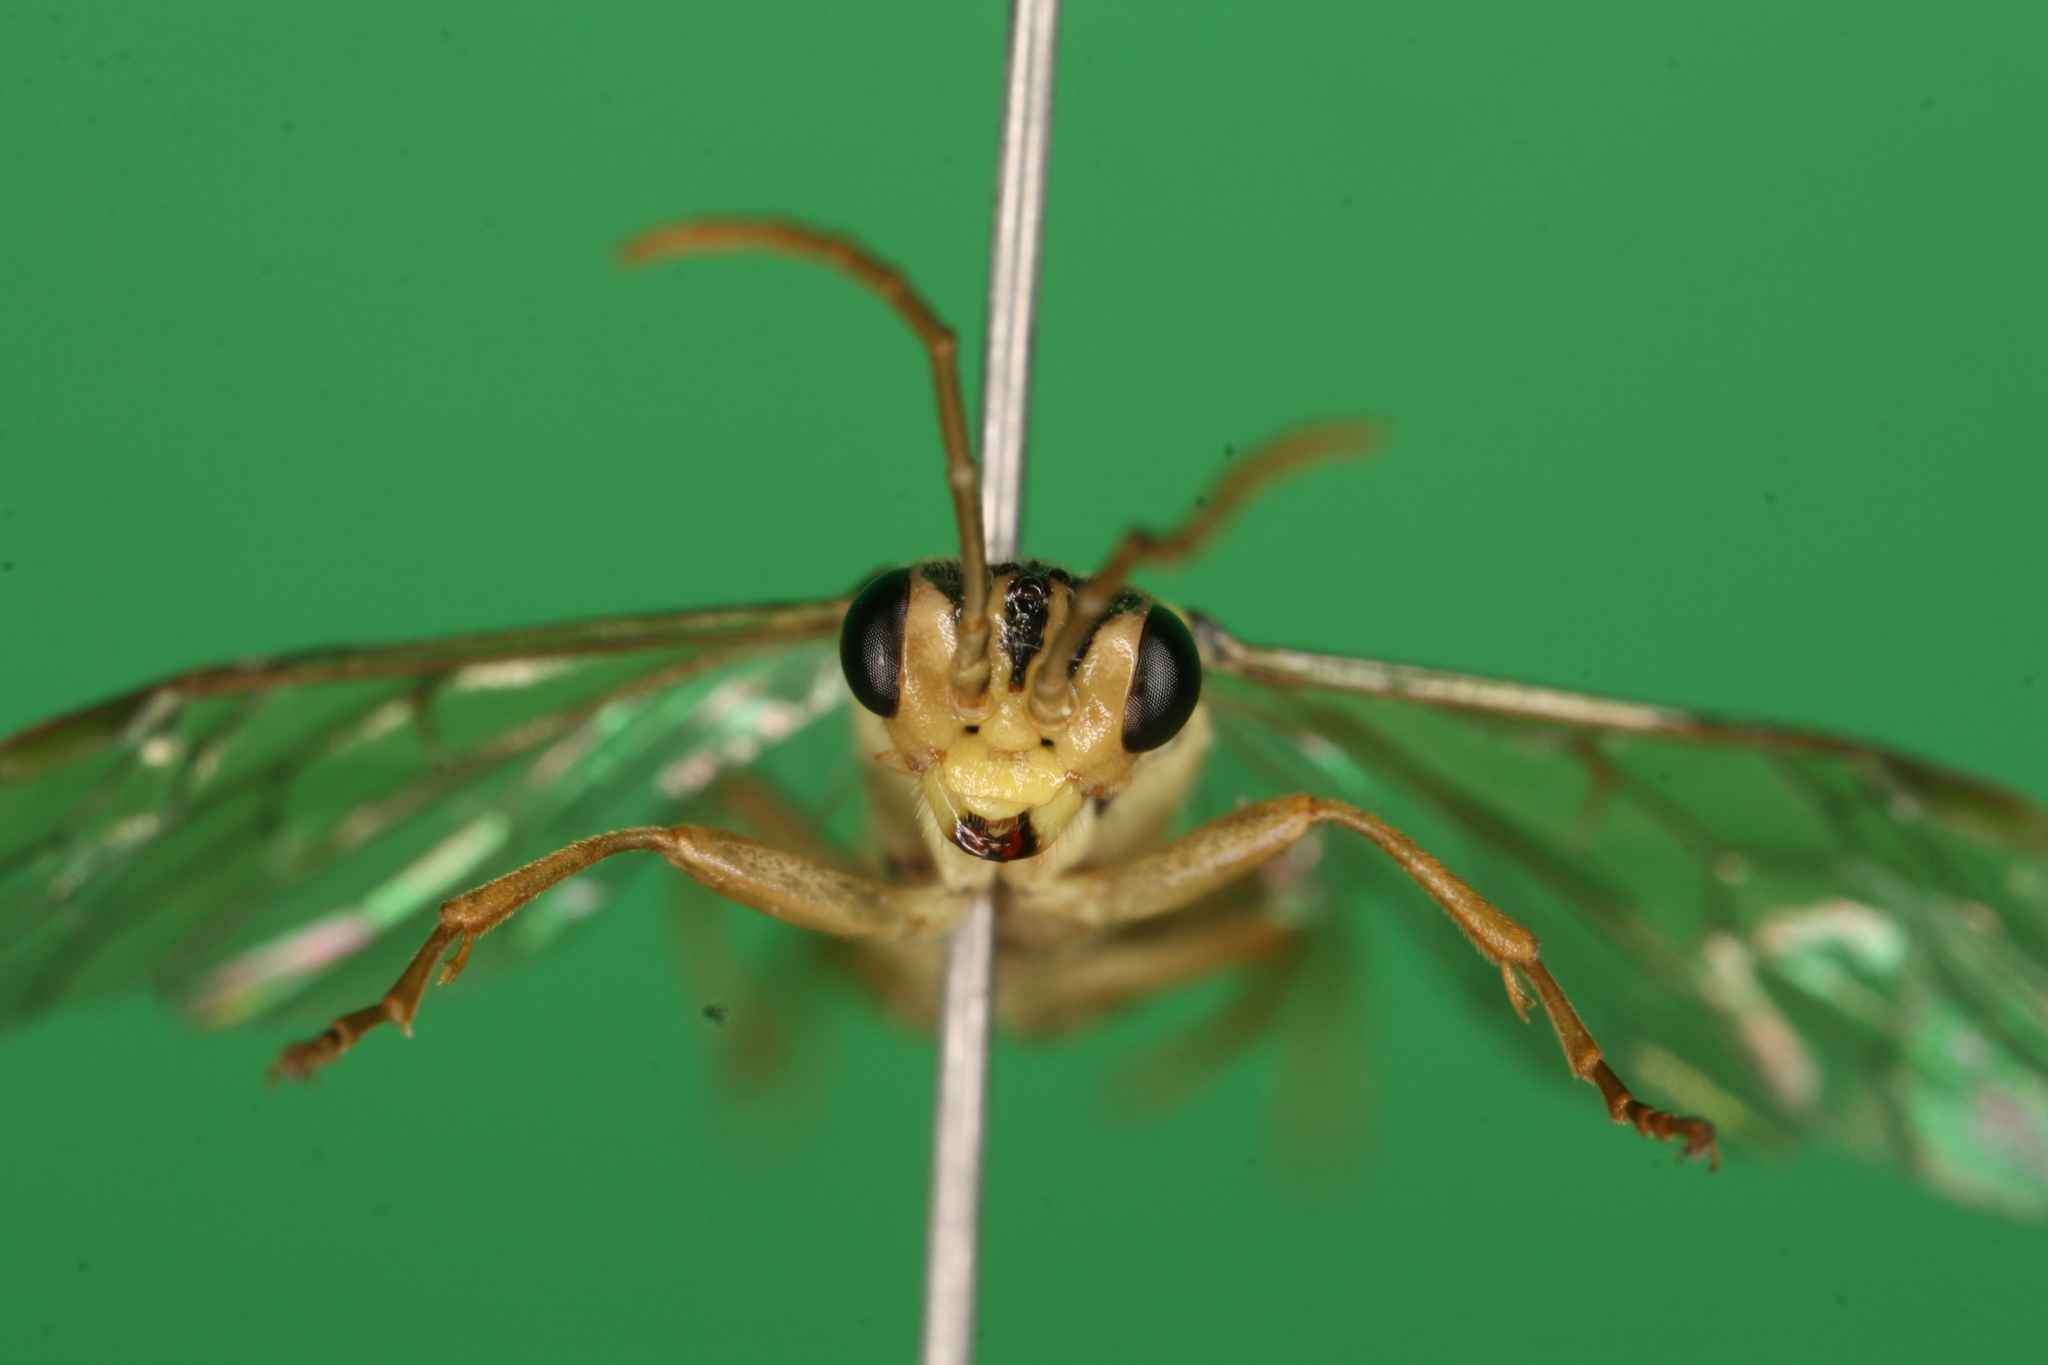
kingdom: Animalia
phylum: Arthropoda
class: Insecta
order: Hymenoptera
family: Tenthredinidae
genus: Aglaostigma
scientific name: Aglaostigma discolor
